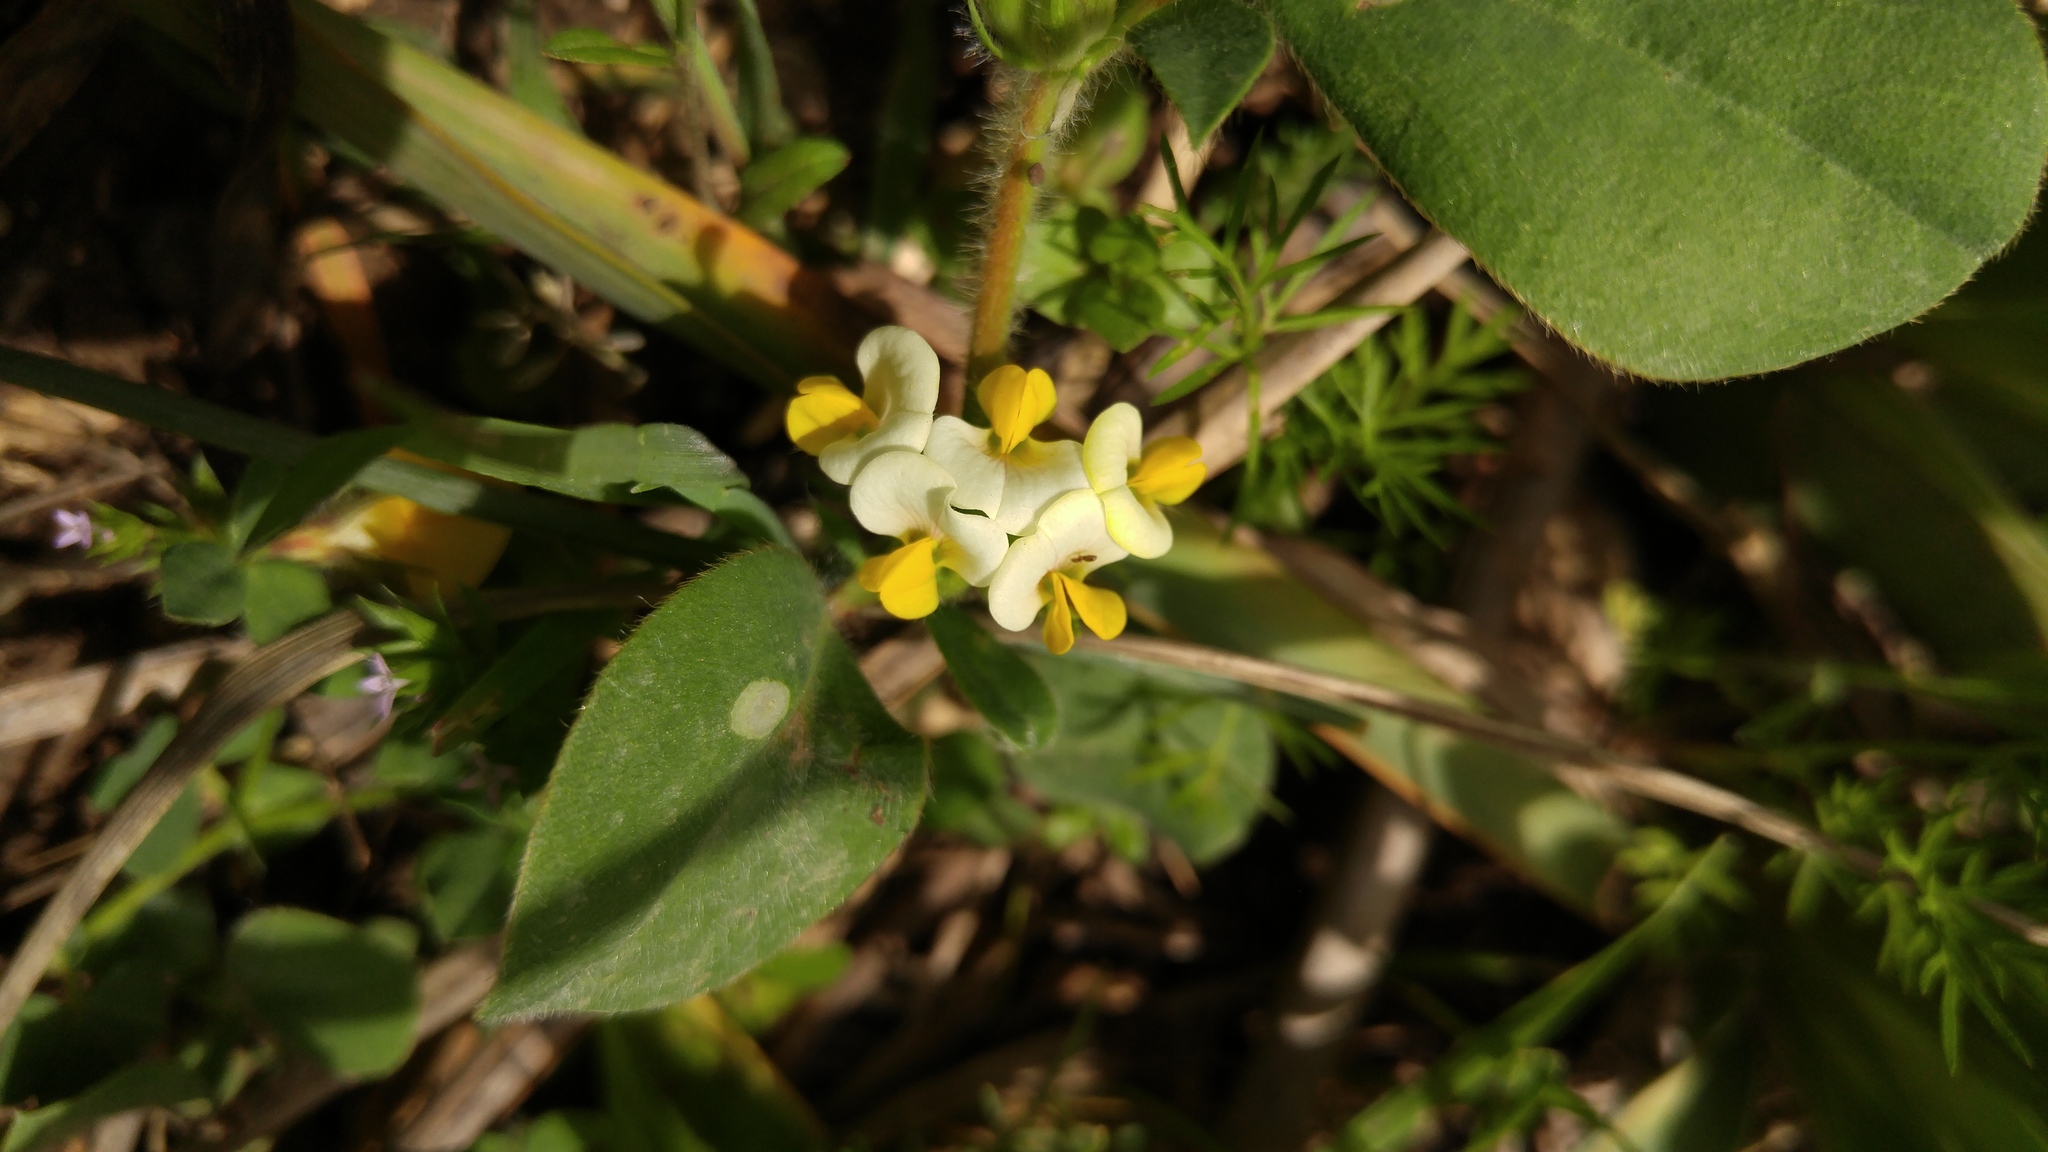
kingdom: Plantae
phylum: Tracheophyta
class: Magnoliopsida
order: Fabales
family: Fabaceae
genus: Tripodion
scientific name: Tripodion tetraphyllum
